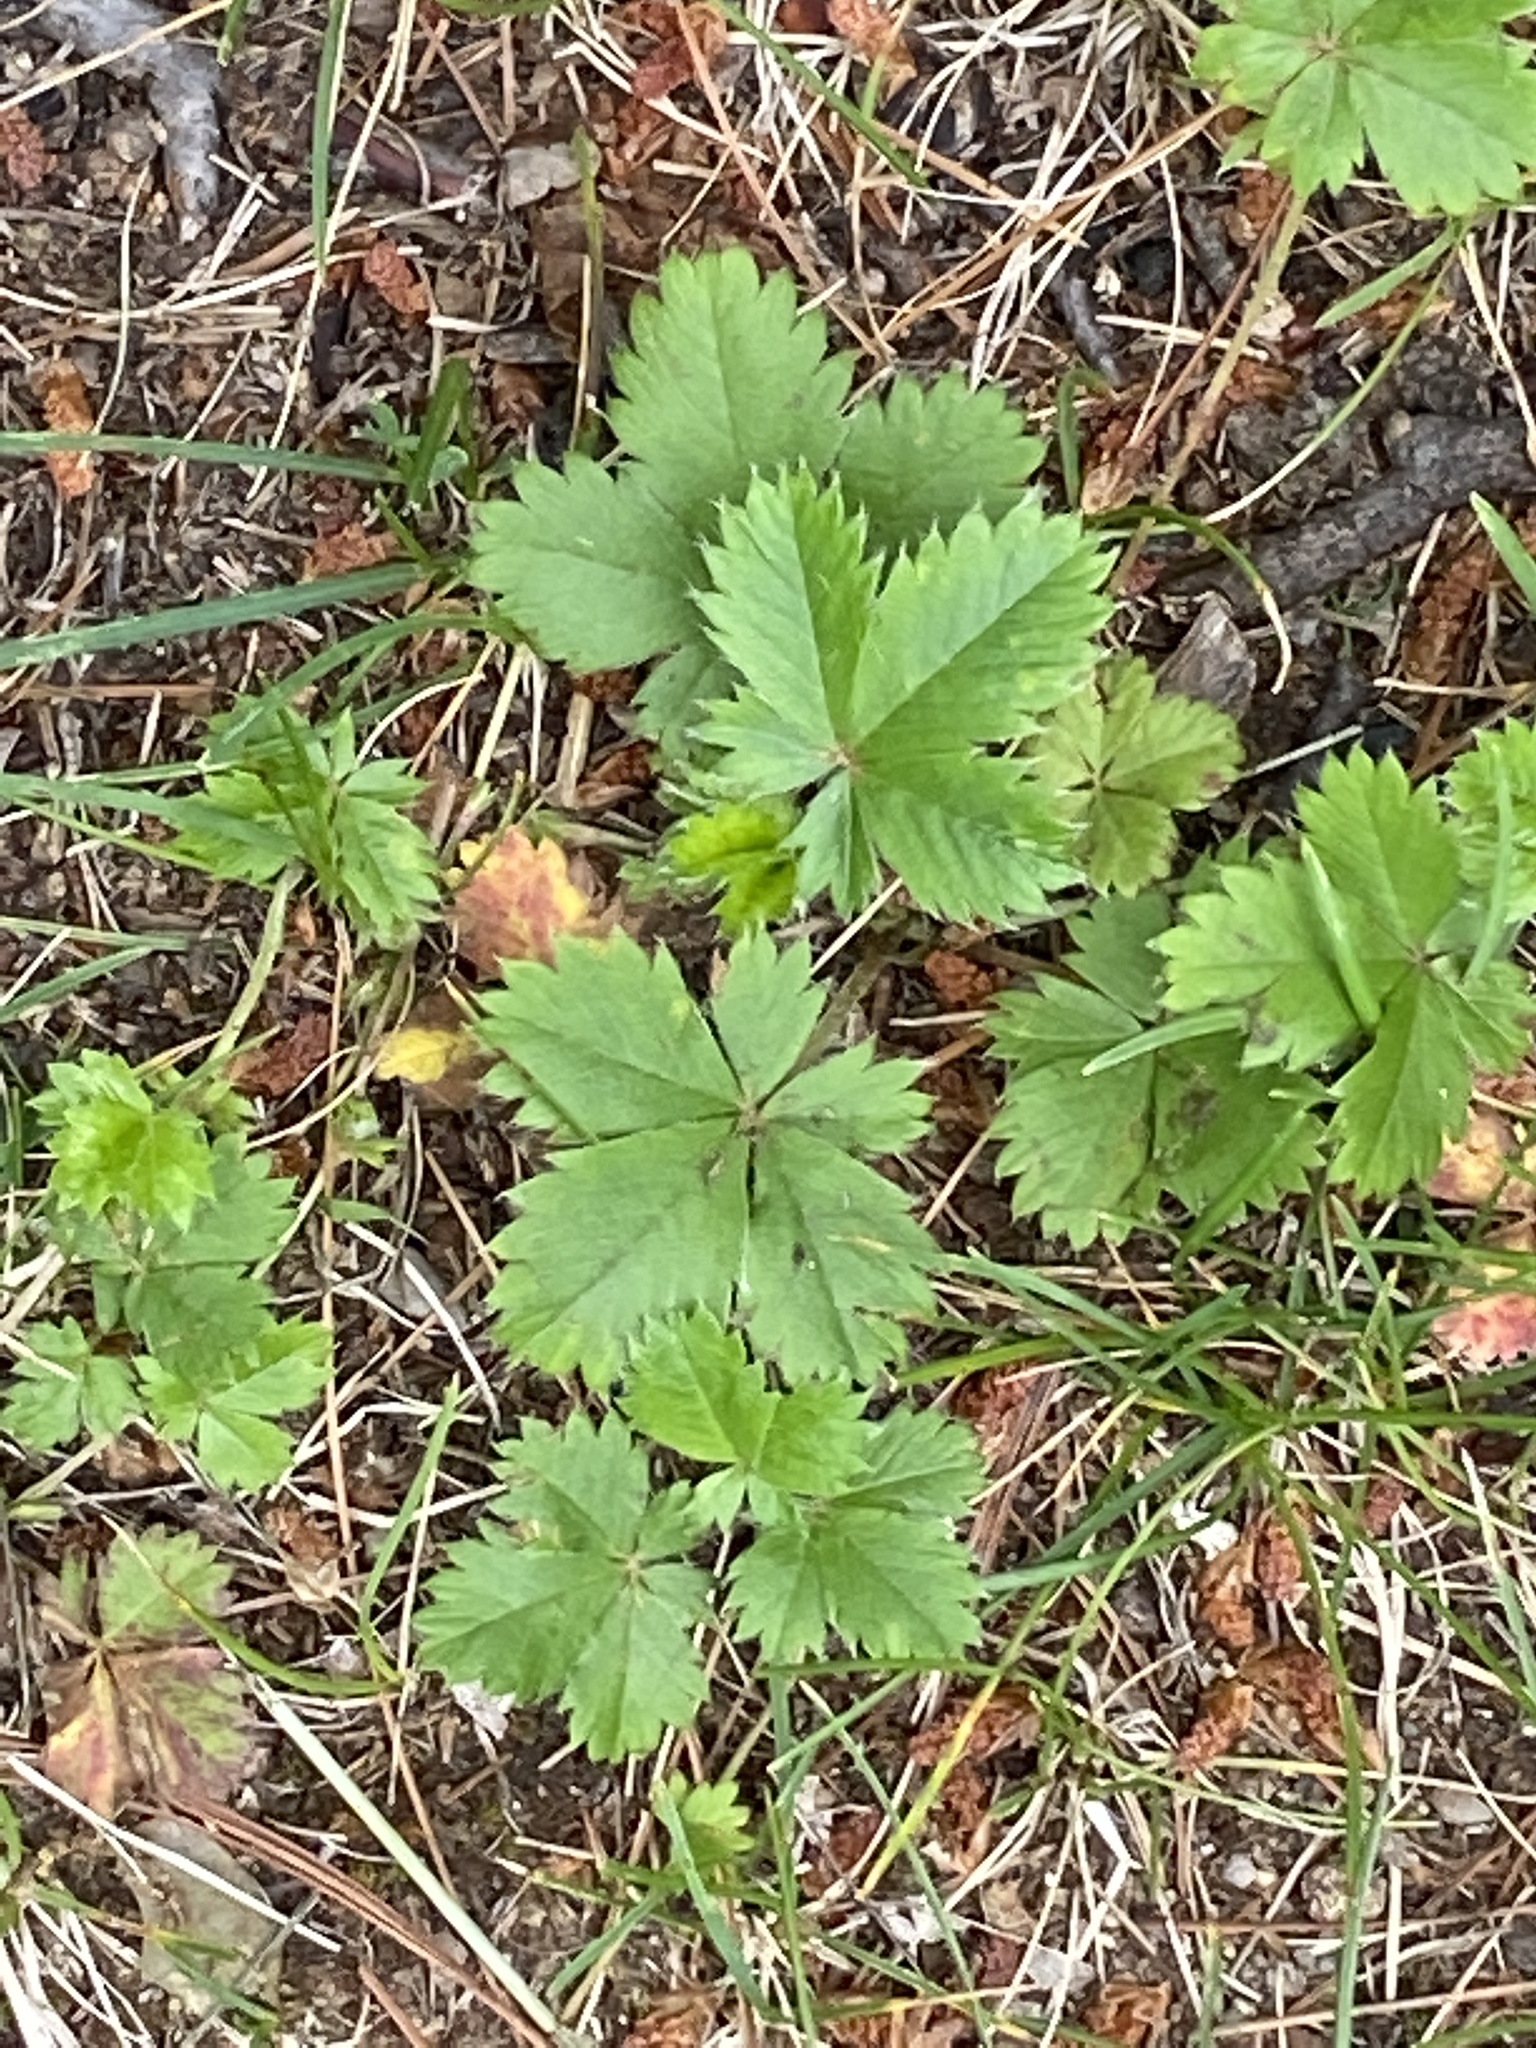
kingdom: Plantae
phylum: Tracheophyta
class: Magnoliopsida
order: Rosales
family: Rosaceae
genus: Potentilla
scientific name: Potentilla canadensis
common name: Canada cinquefoil
